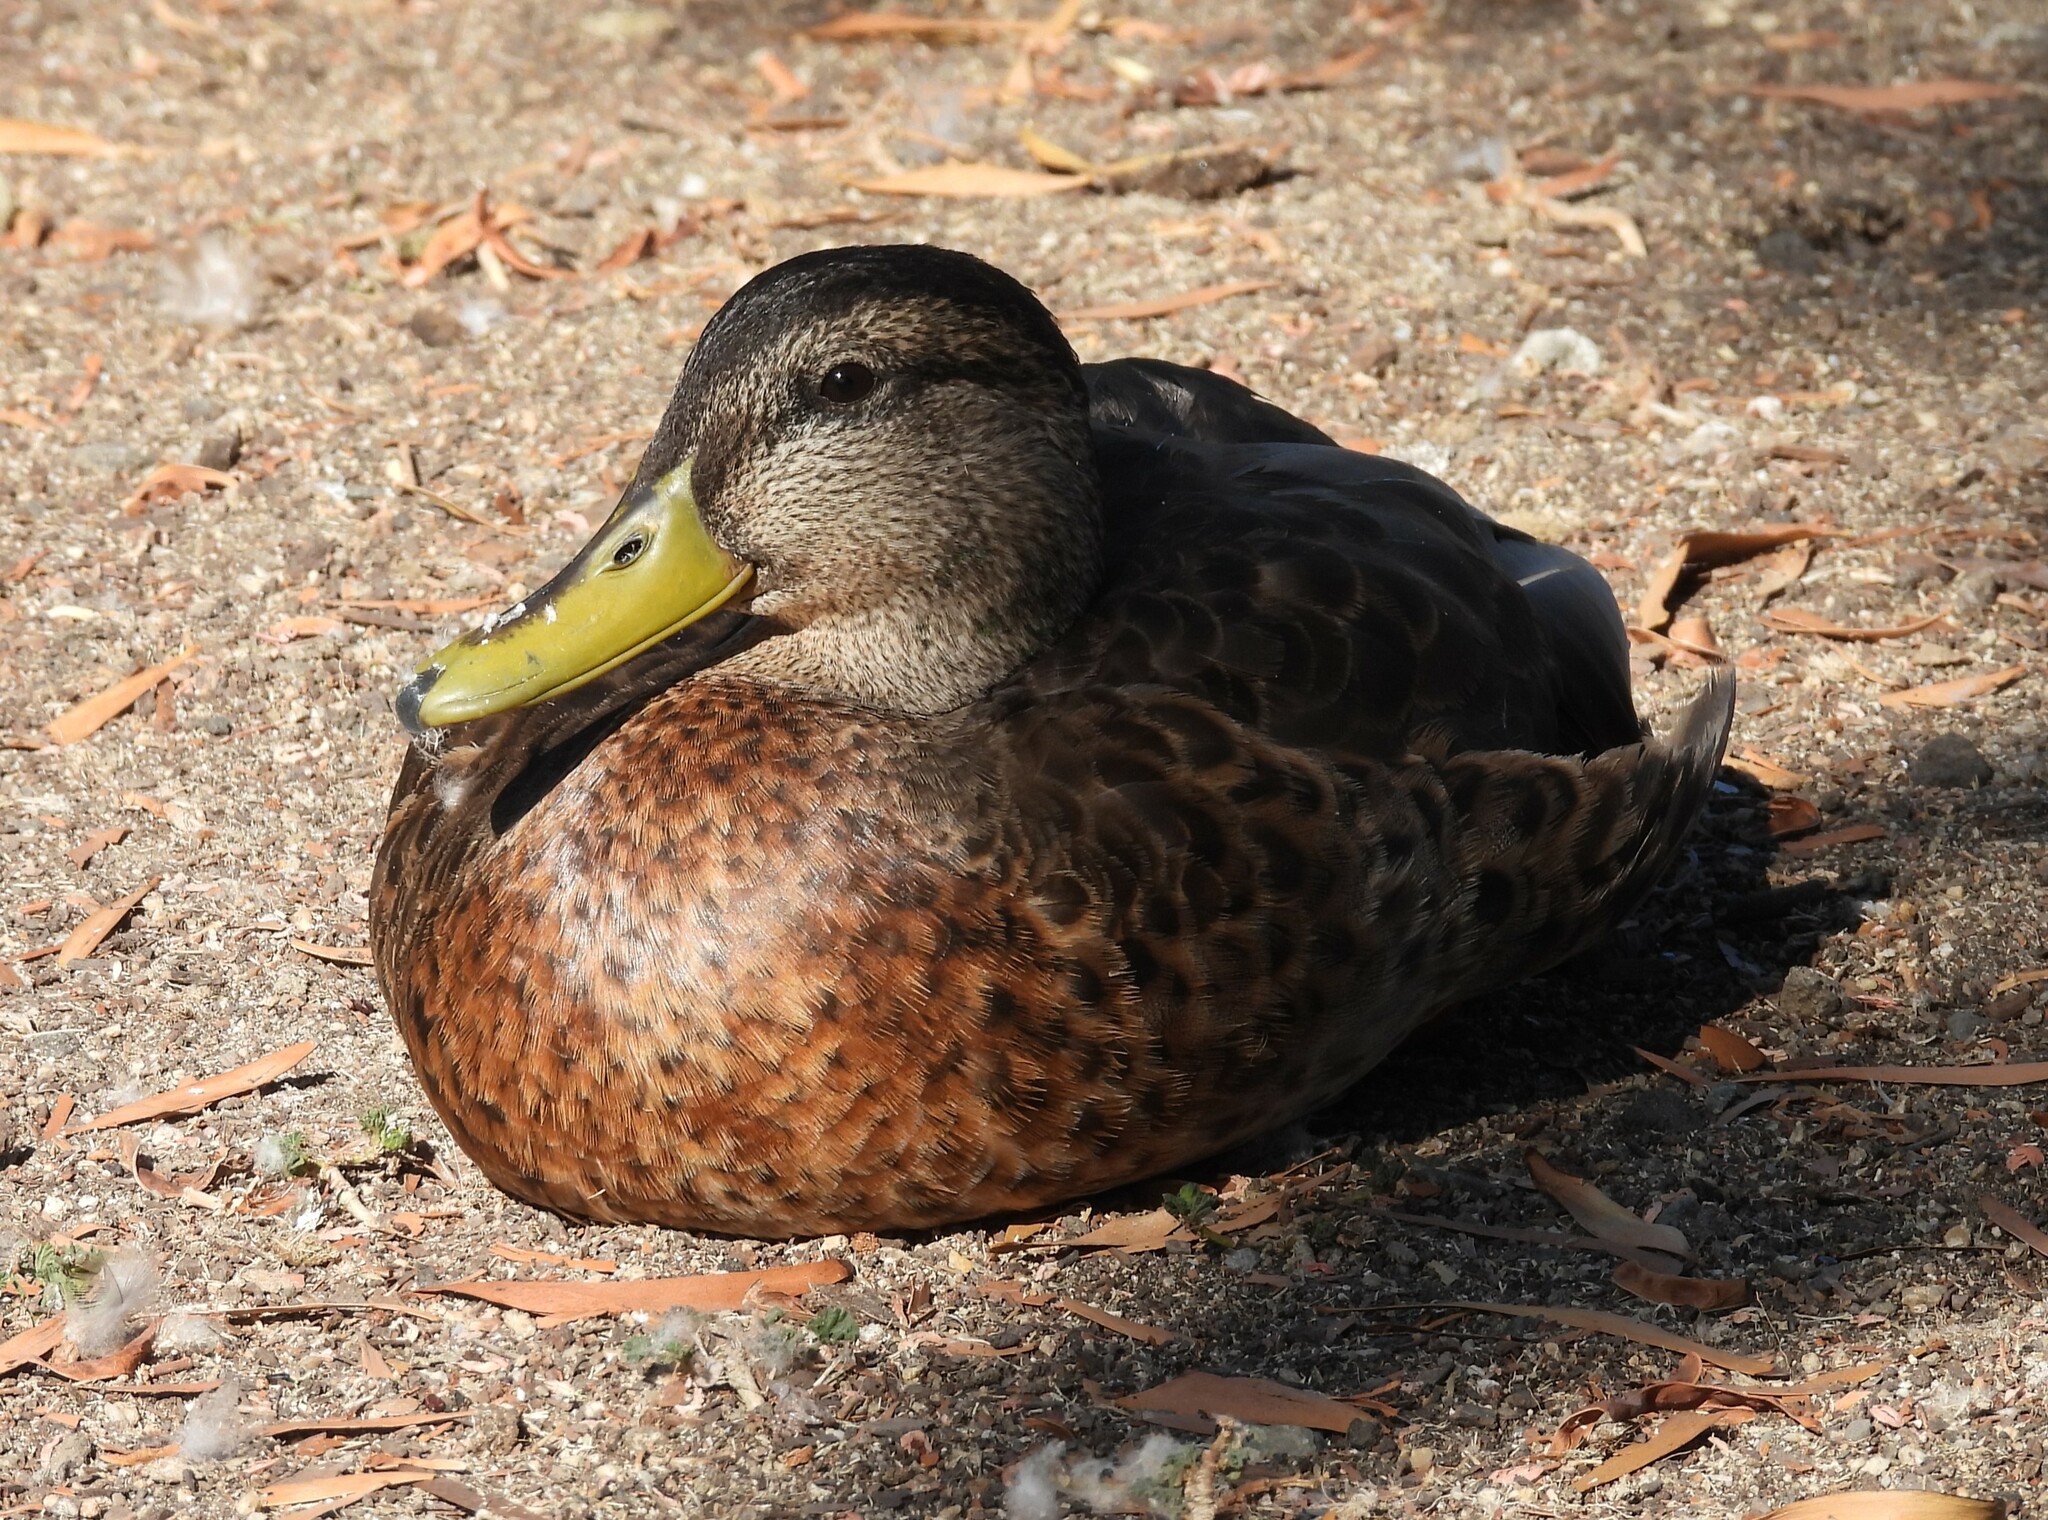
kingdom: Animalia
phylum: Chordata
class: Aves
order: Anseriformes
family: Anatidae
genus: Anas
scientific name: Anas platyrhynchos
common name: Mallard
